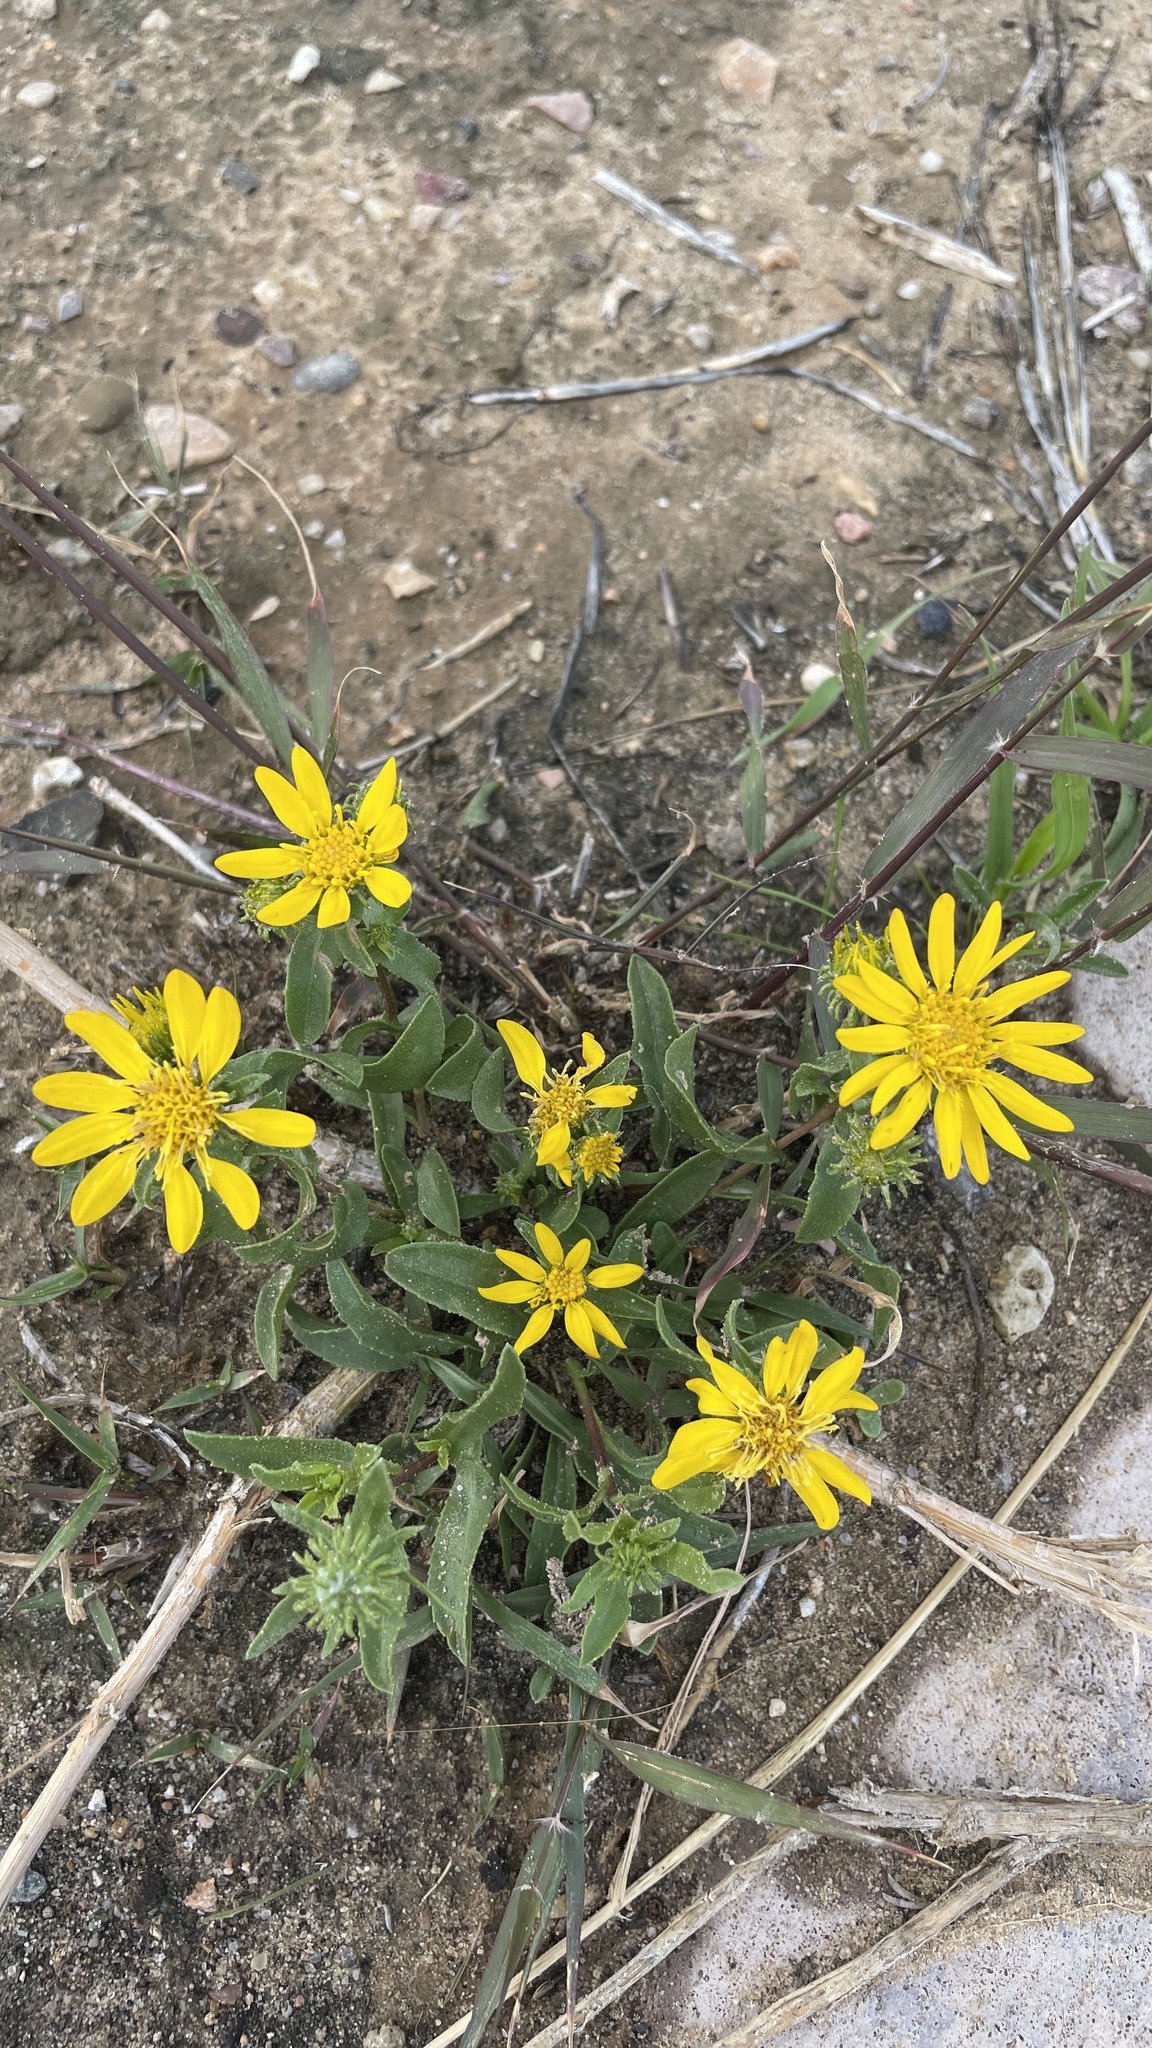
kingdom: Plantae
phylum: Tracheophyta
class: Magnoliopsida
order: Asterales
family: Asteraceae
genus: Grindelia
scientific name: Grindelia squarrosa
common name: Curly-cup gumweed
